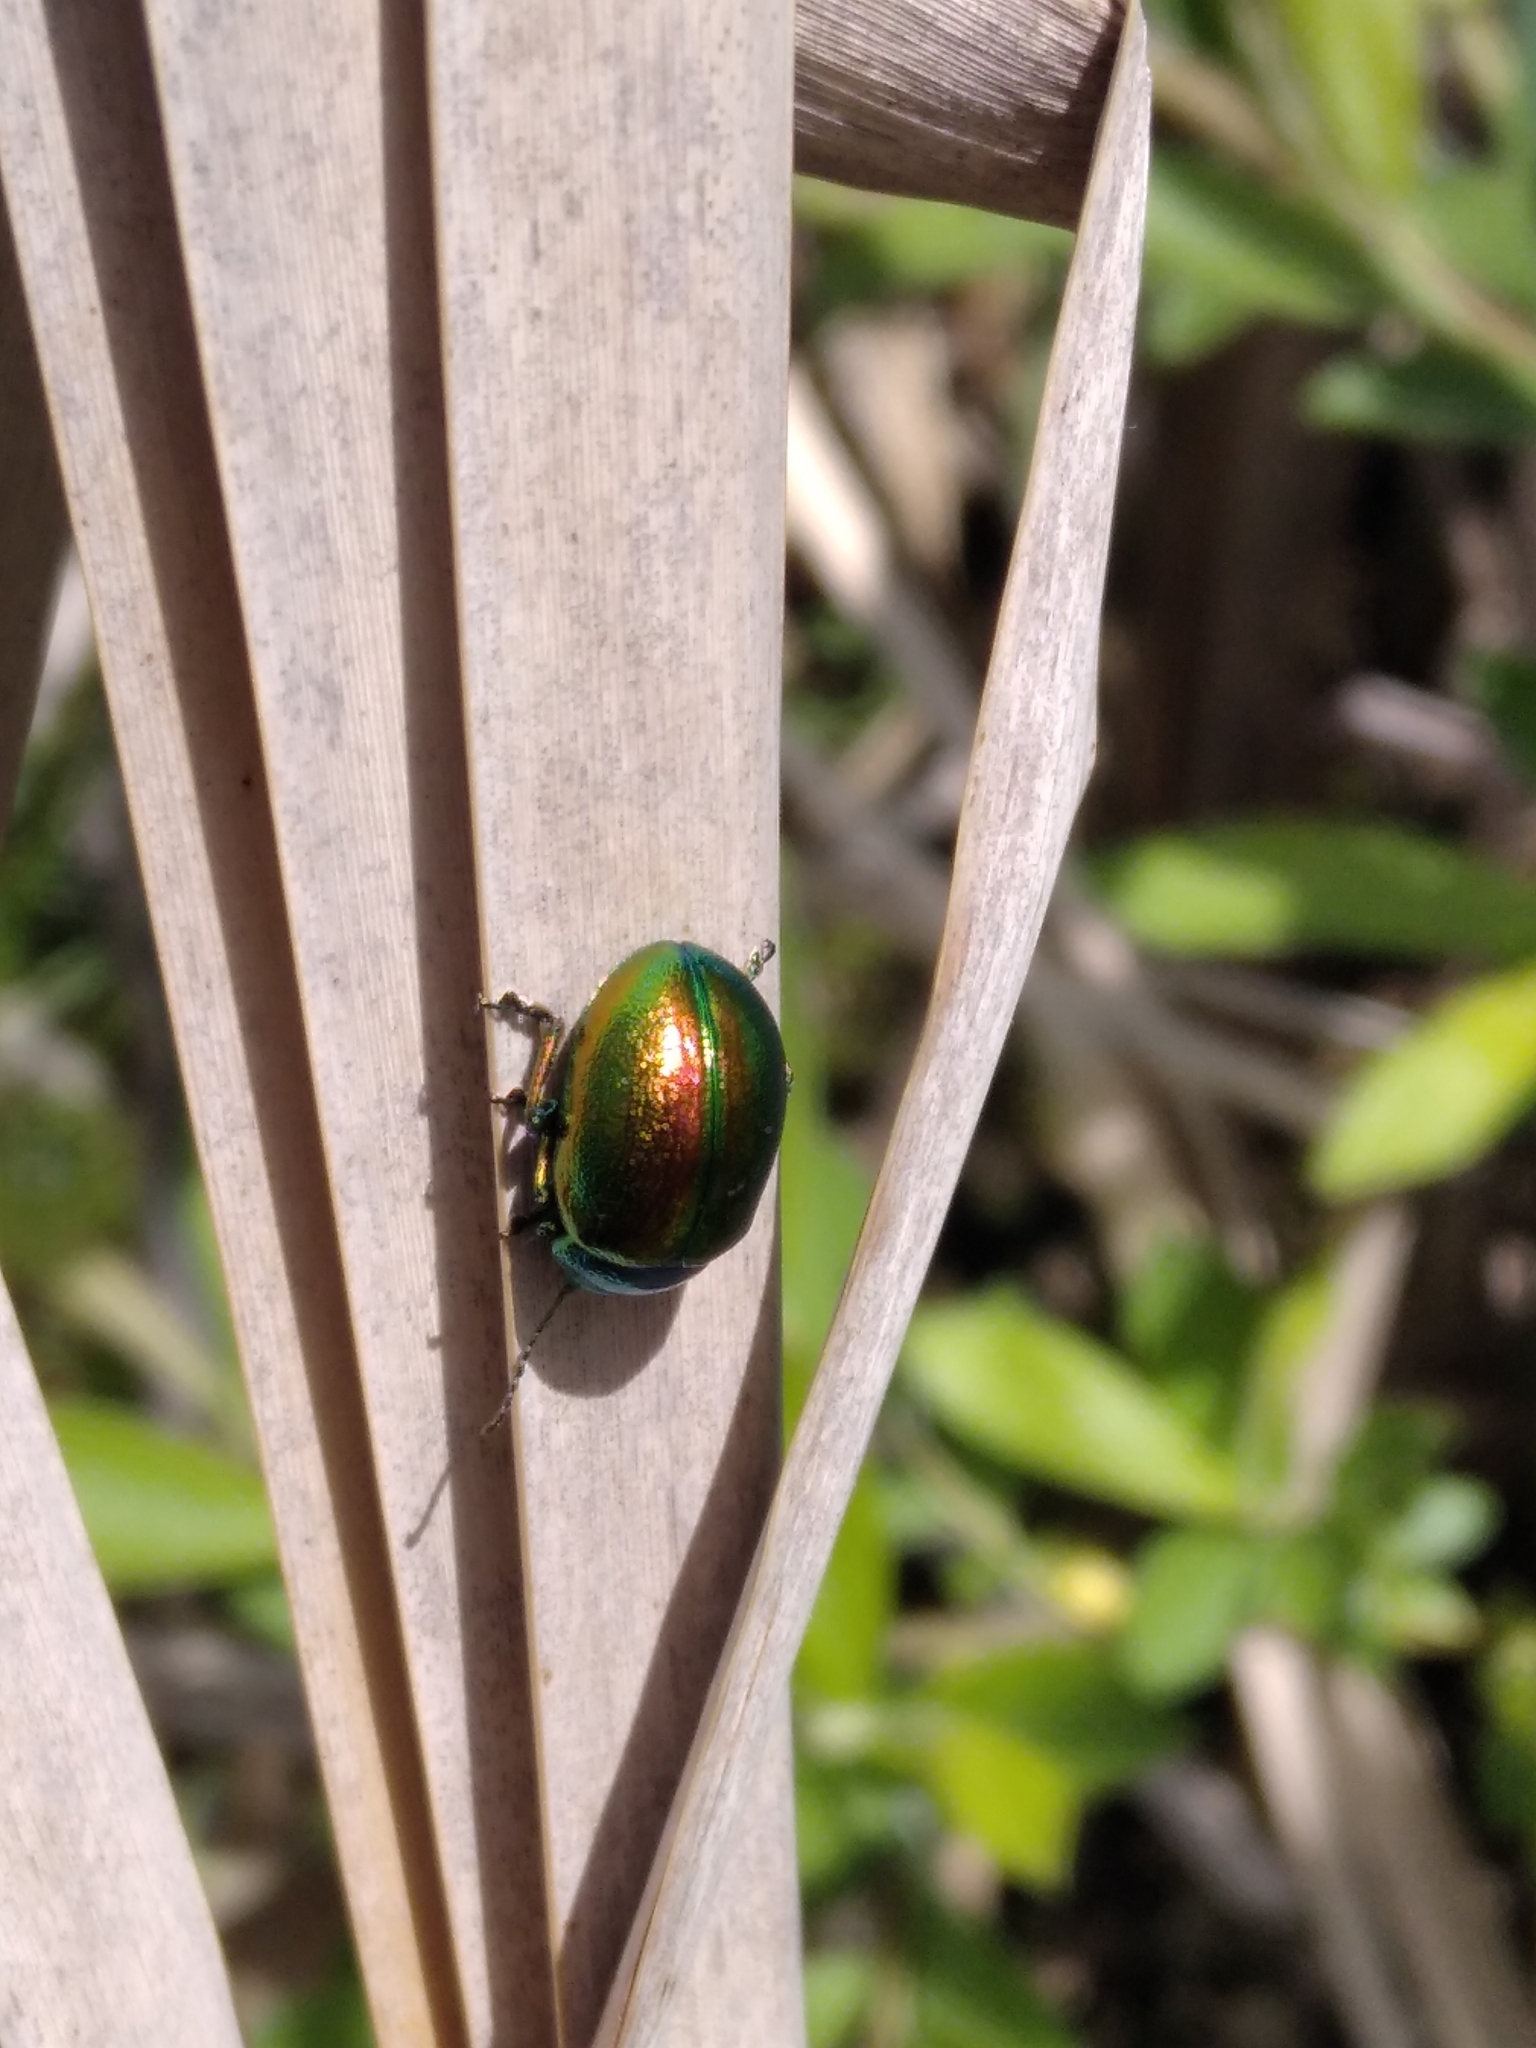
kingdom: Animalia
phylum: Arthropoda
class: Insecta
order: Coleoptera
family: Chrysomelidae
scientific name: Chrysomelidae
